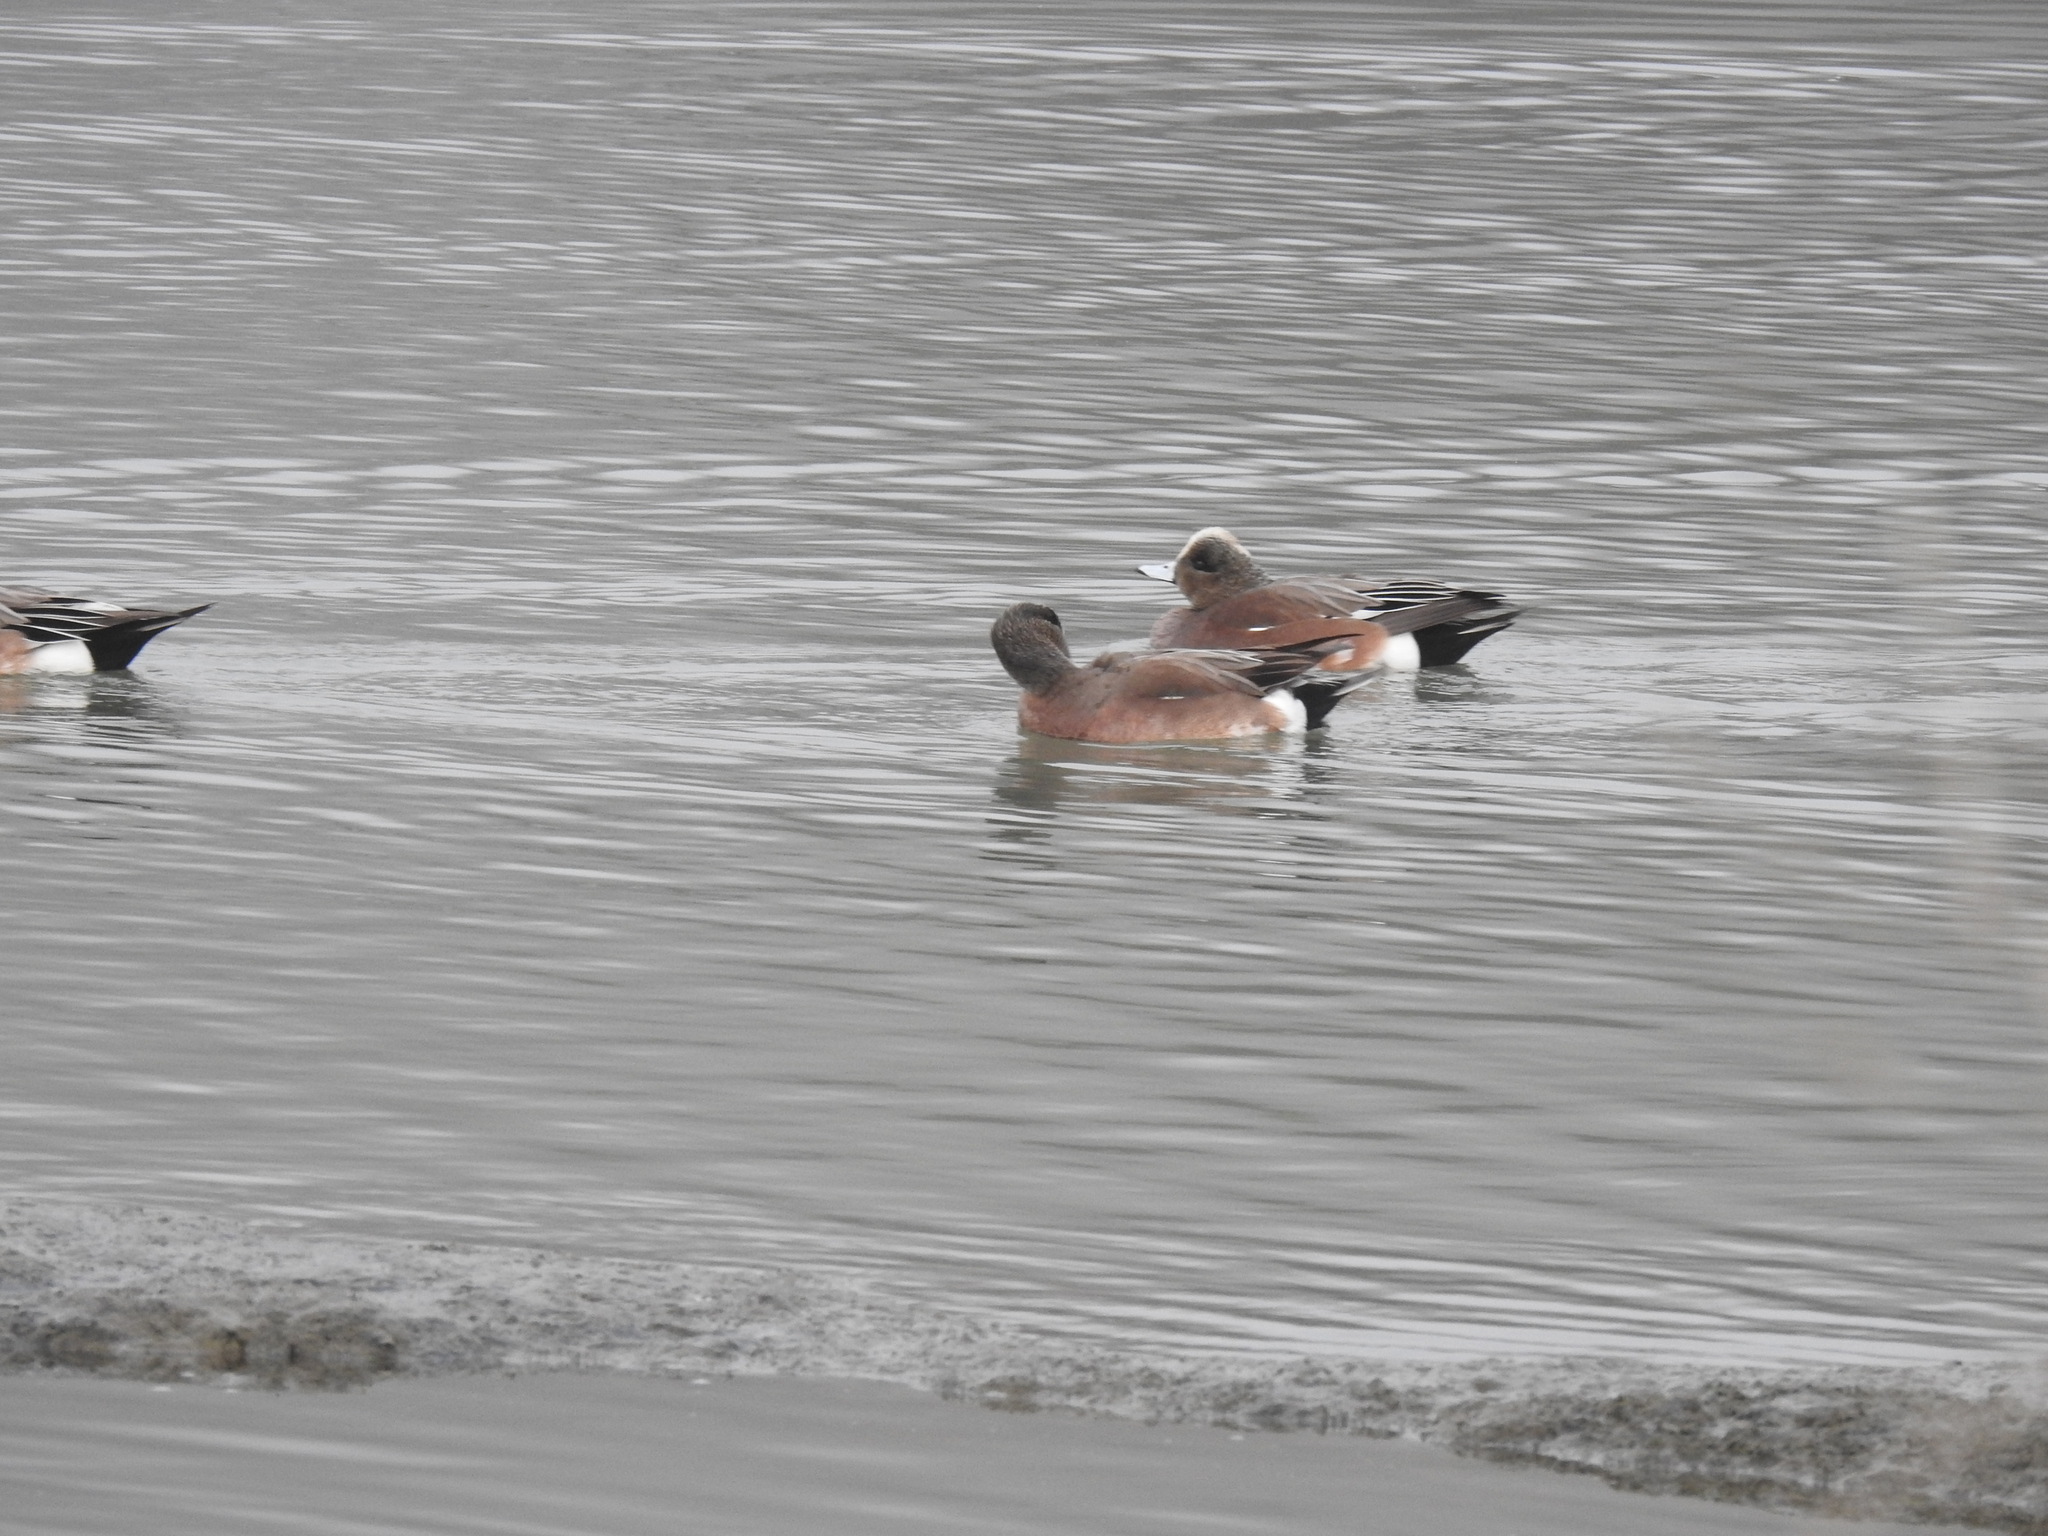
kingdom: Animalia
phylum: Chordata
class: Aves
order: Anseriformes
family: Anatidae
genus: Mareca
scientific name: Mareca americana
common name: American wigeon
